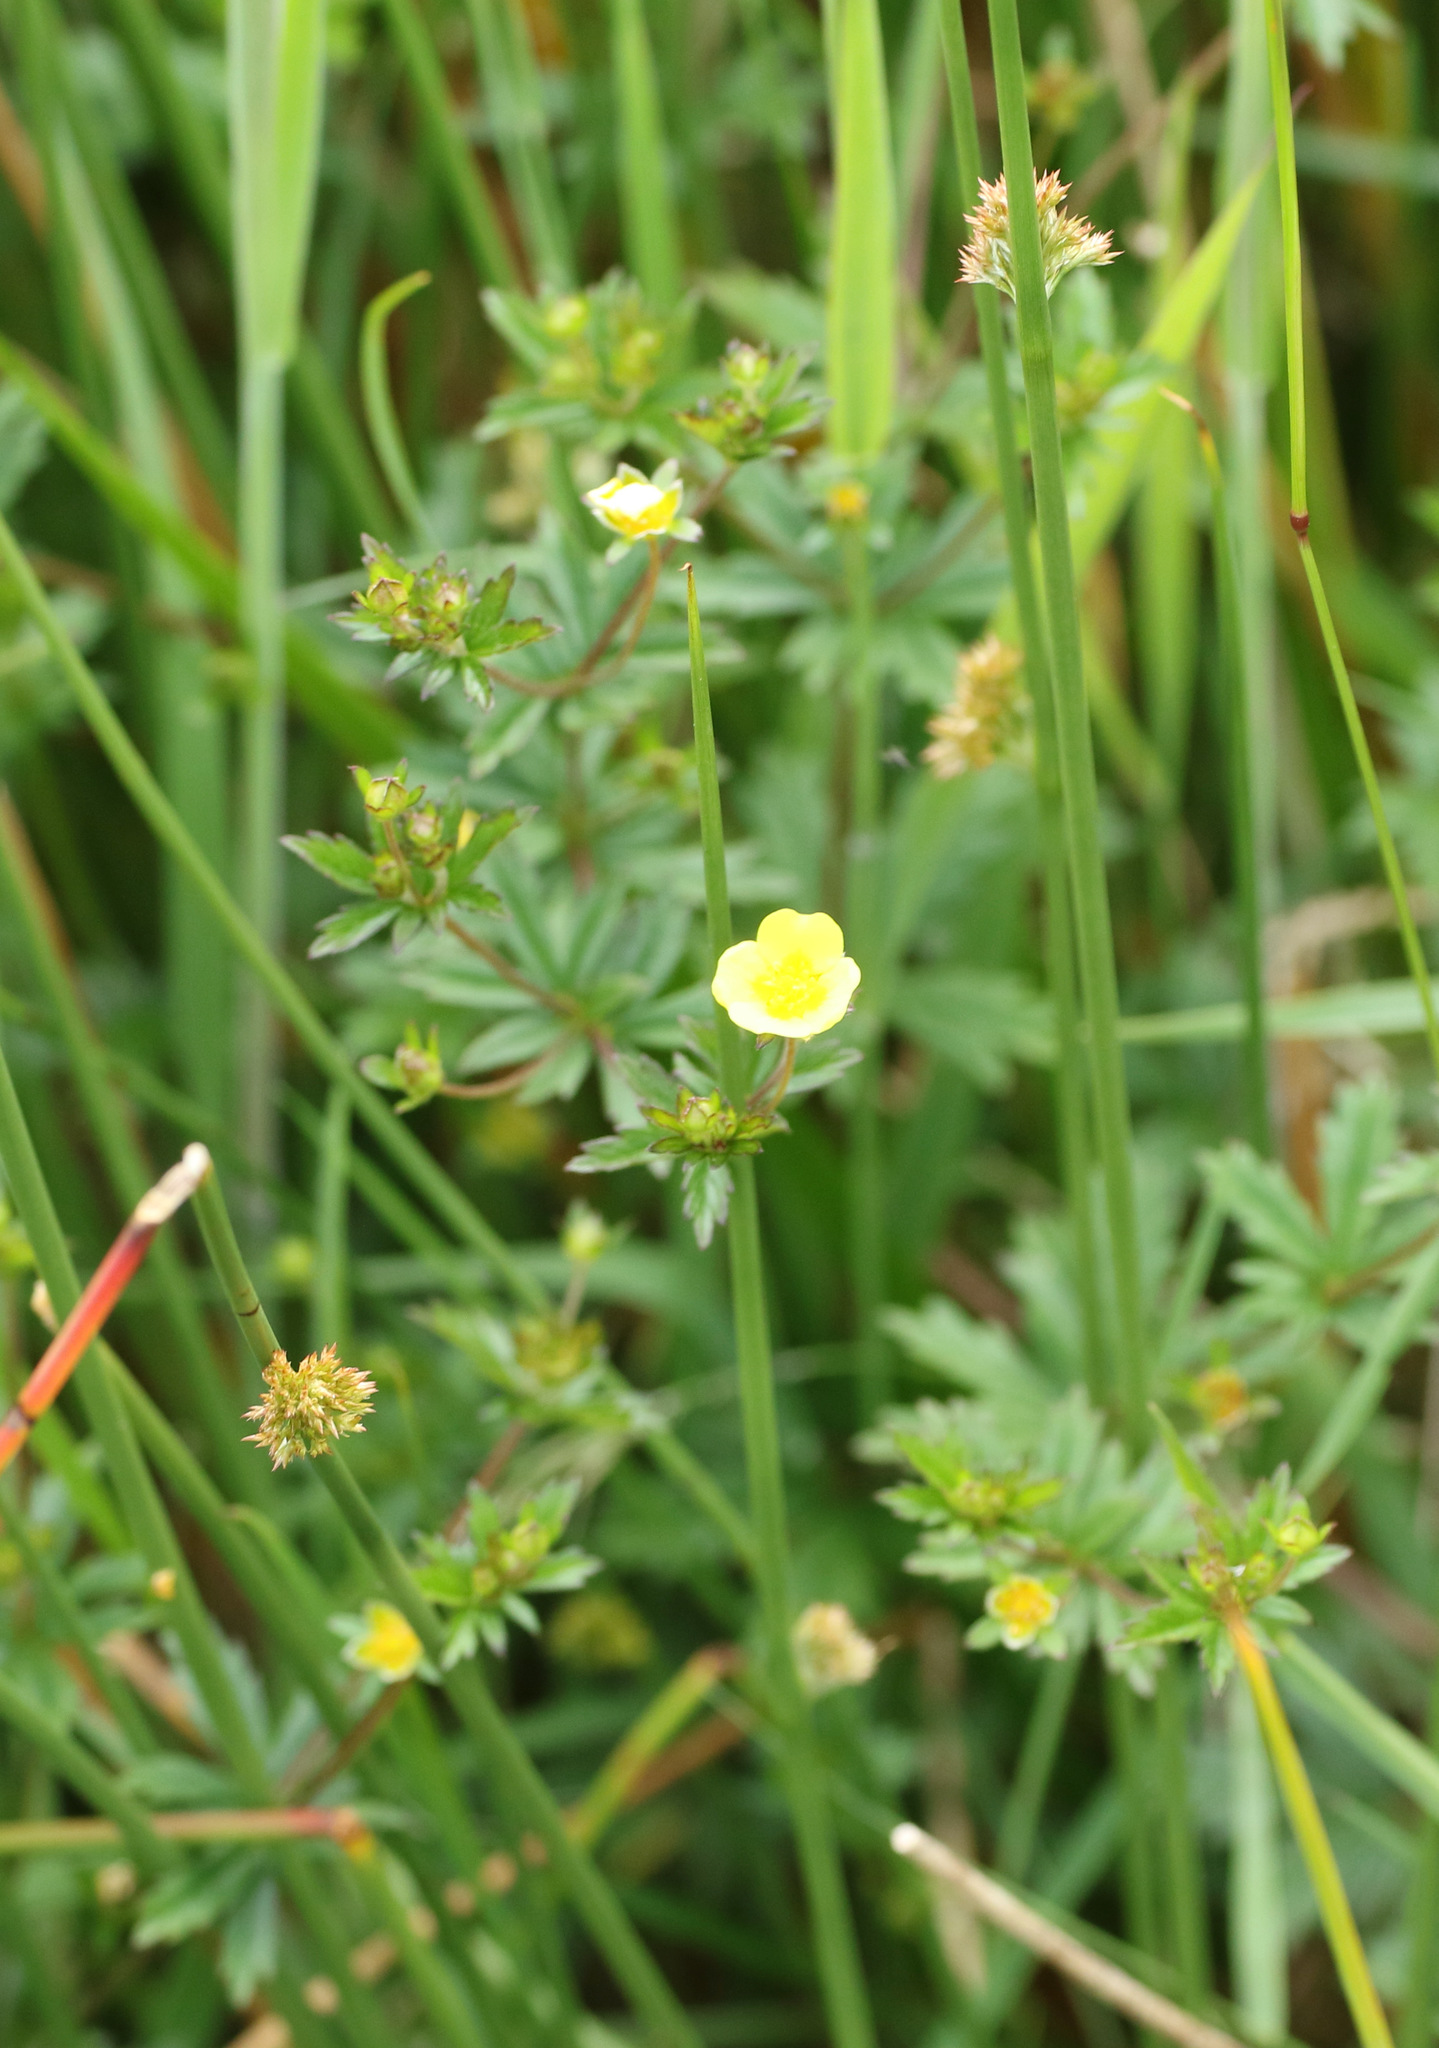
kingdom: Plantae
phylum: Tracheophyta
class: Magnoliopsida
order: Rosales
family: Rosaceae
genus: Potentilla
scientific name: Potentilla erecta
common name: Tormentil
